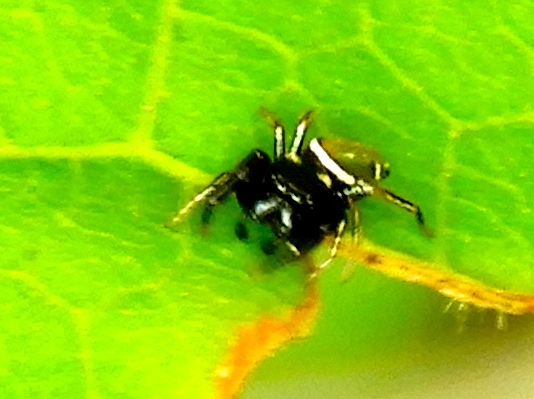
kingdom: Animalia
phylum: Arthropoda
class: Arachnida
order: Araneae
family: Salticidae
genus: Sassacus
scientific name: Sassacus vitis
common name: Jumping spiders
